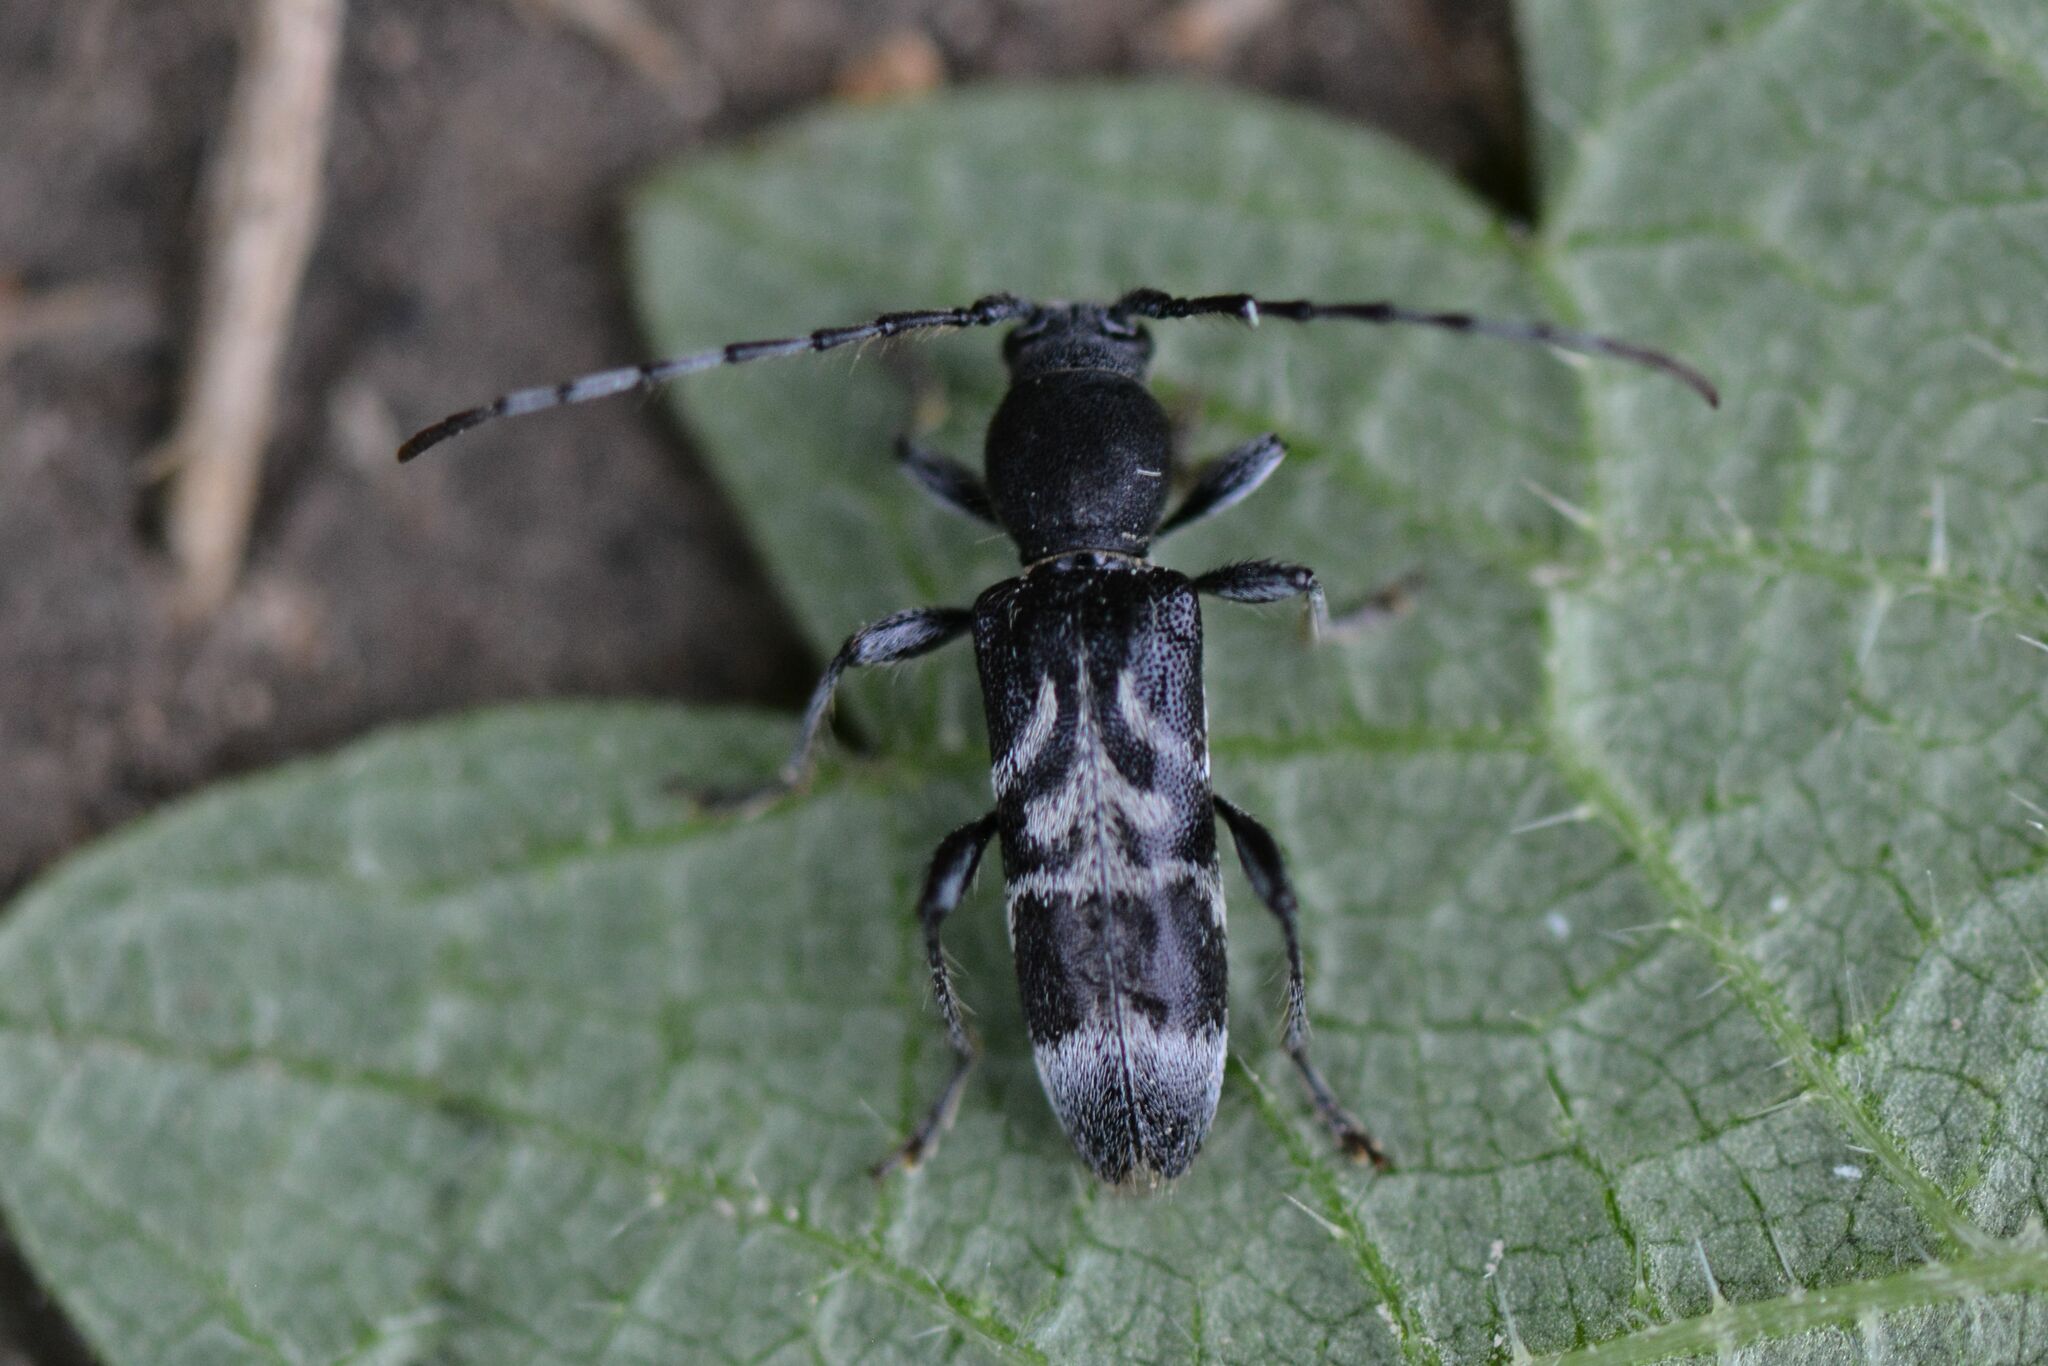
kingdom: Animalia
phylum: Arthropoda
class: Insecta
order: Coleoptera
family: Cerambycidae
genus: Anaglyptus
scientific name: Anaglyptus mysticus
